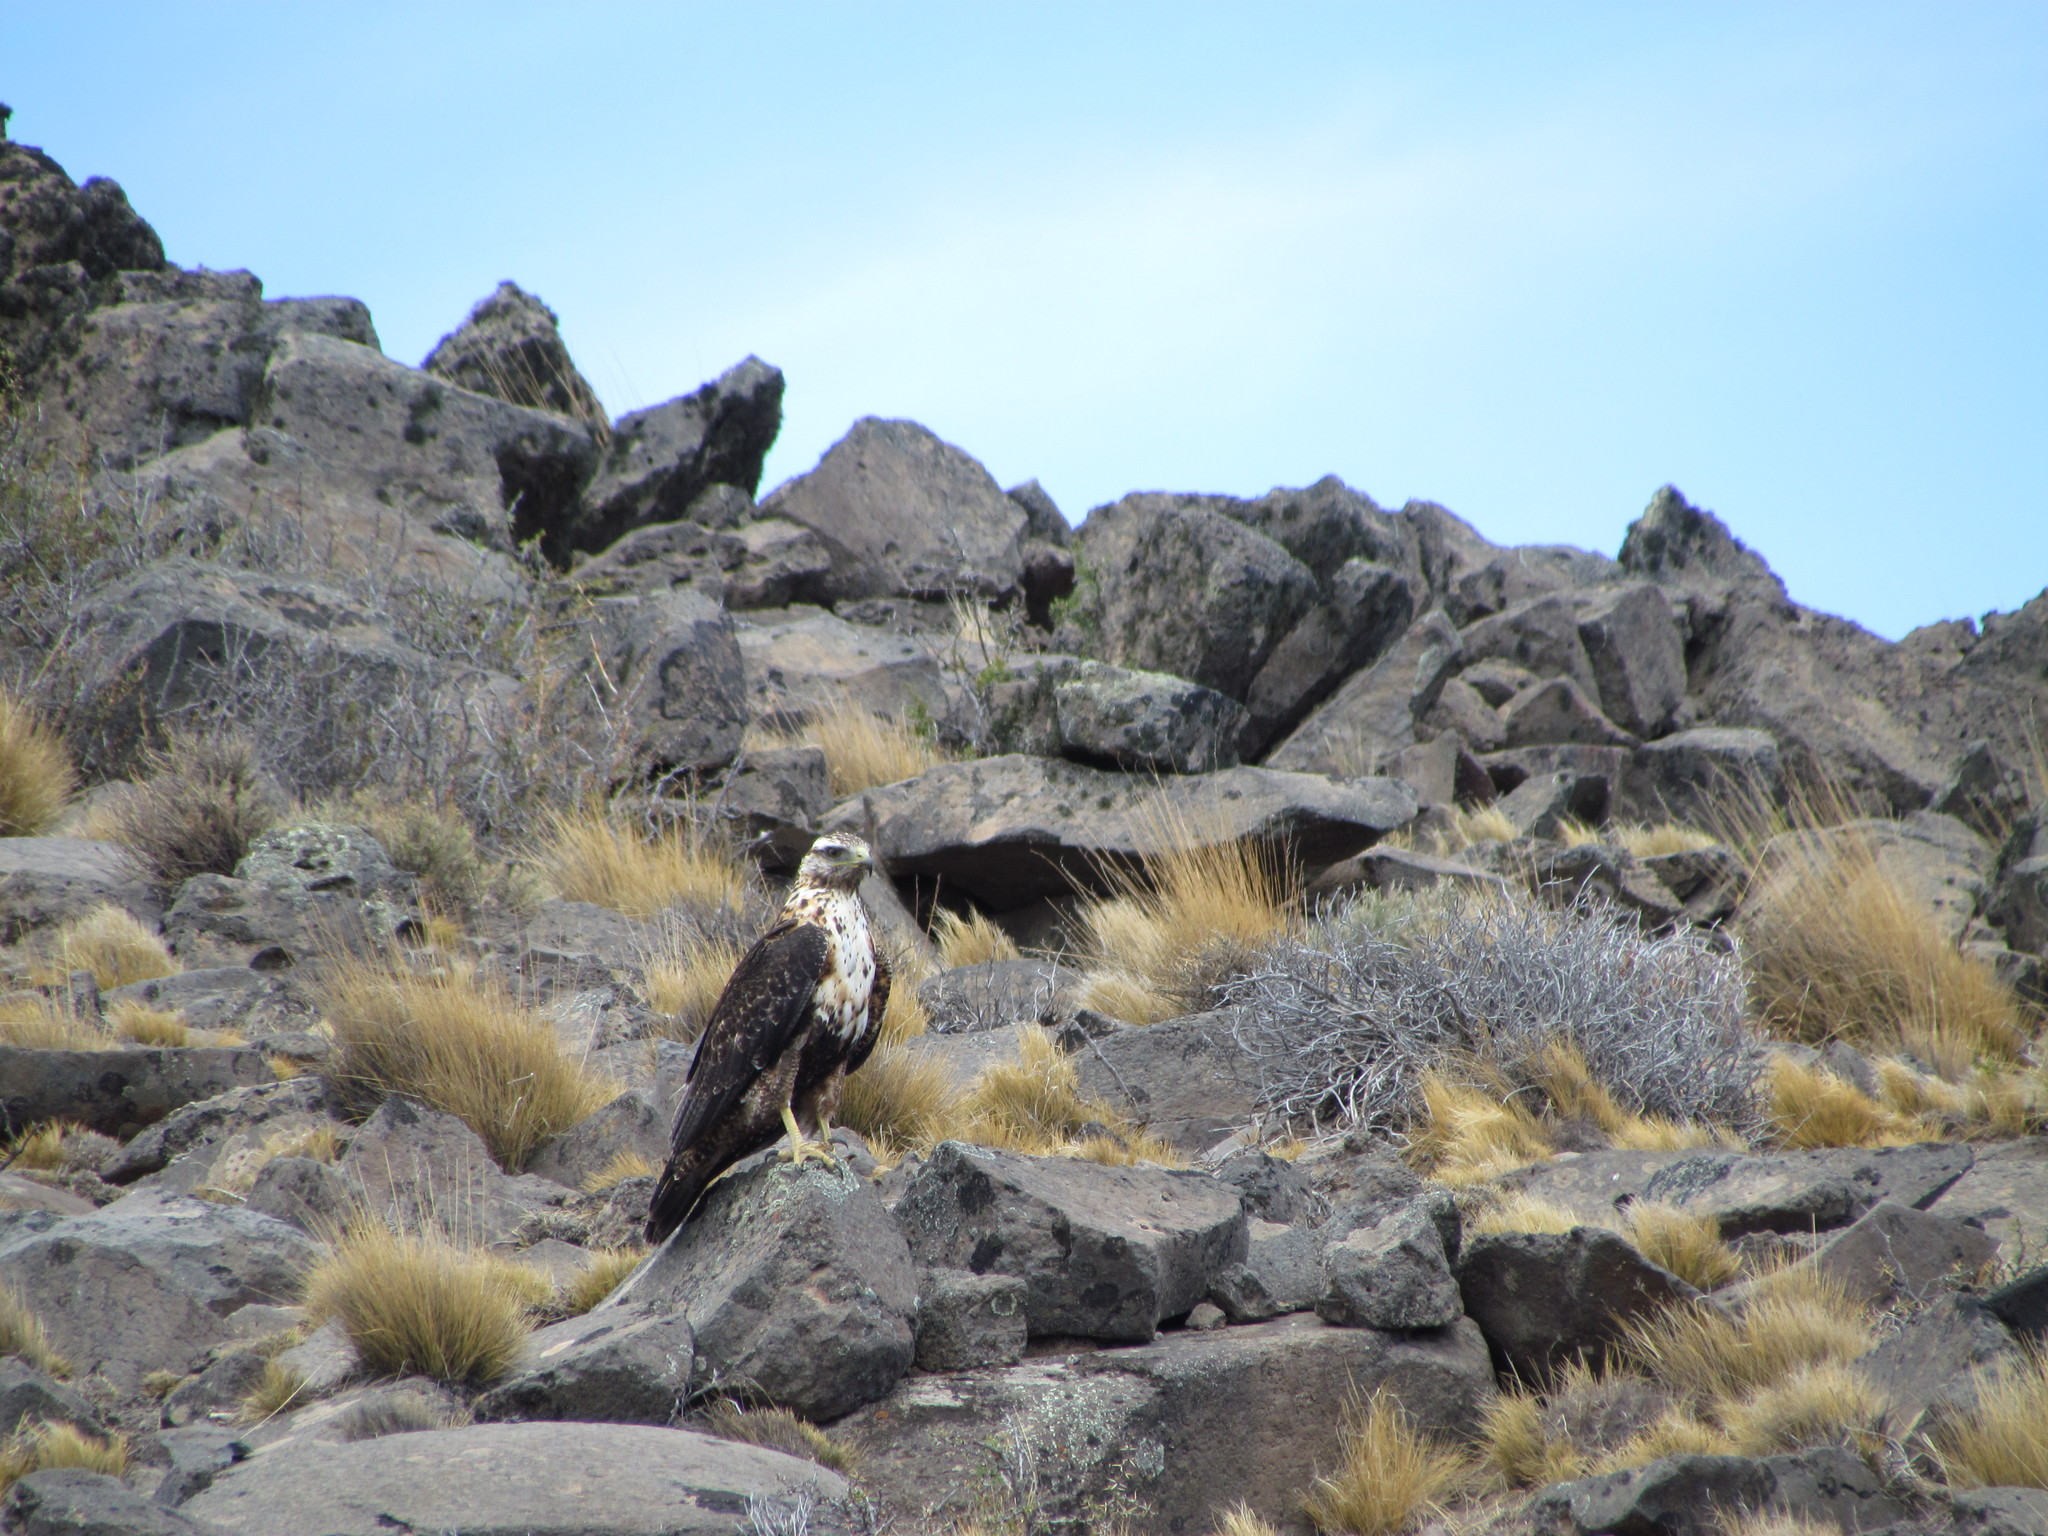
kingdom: Animalia
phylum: Chordata
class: Aves
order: Accipitriformes
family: Accipitridae
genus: Geranoaetus
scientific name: Geranoaetus melanoleucus
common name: Black-chested buzzard-eagle
